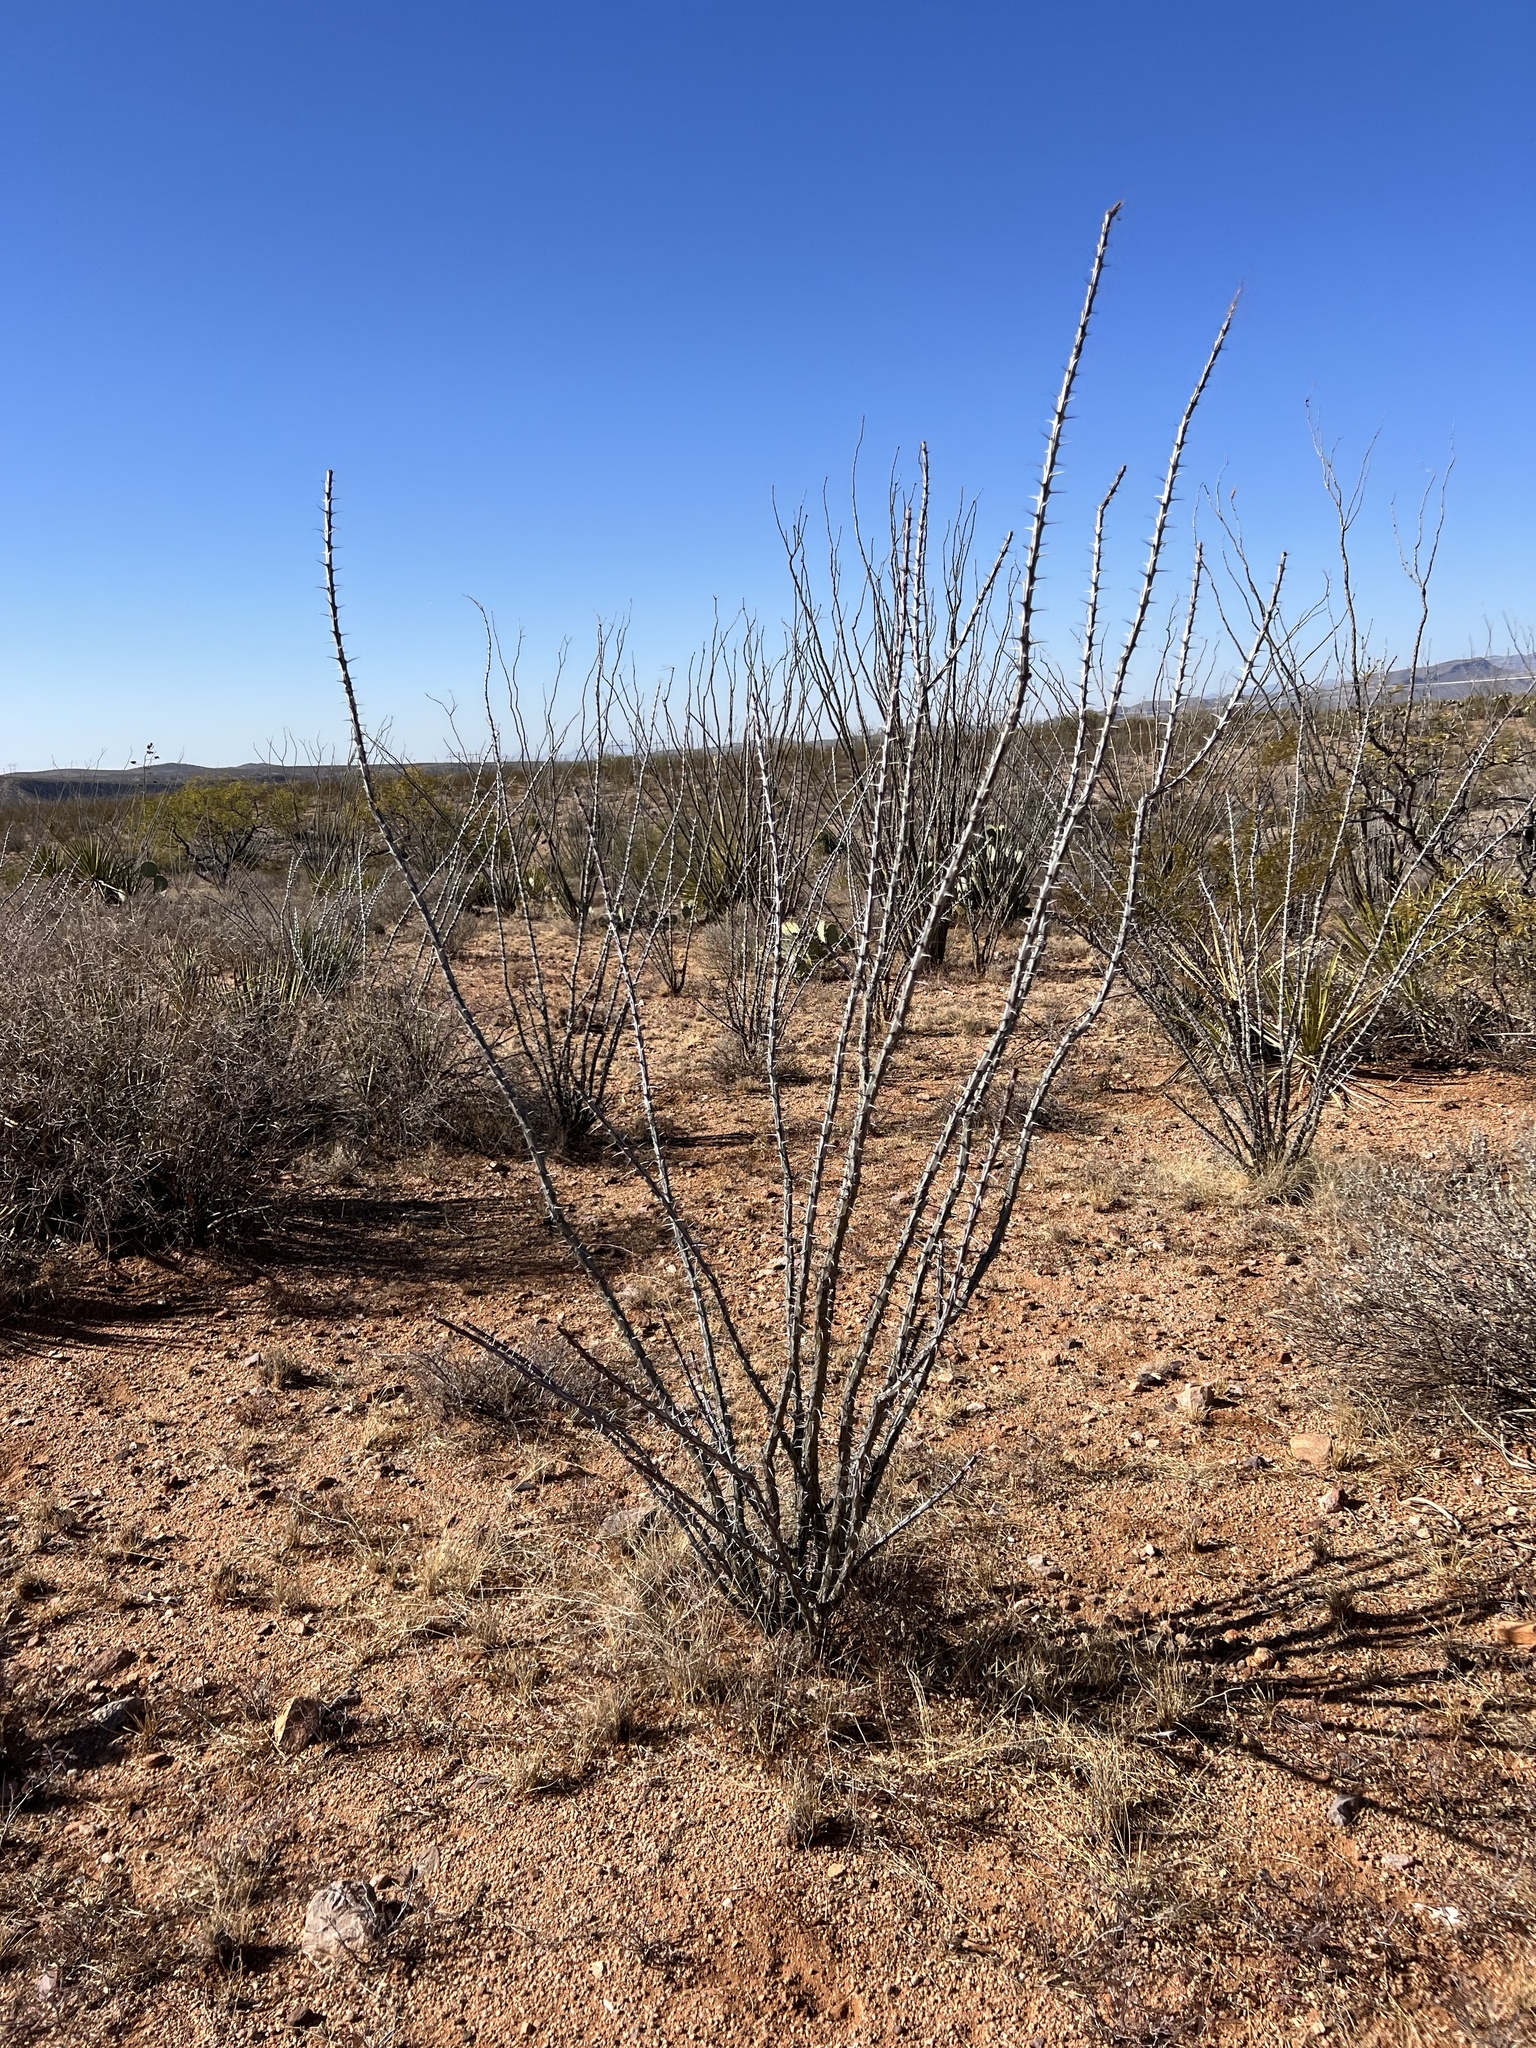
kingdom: Plantae
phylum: Tracheophyta
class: Magnoliopsida
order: Ericales
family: Fouquieriaceae
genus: Fouquieria
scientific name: Fouquieria splendens
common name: Vine-cactus
